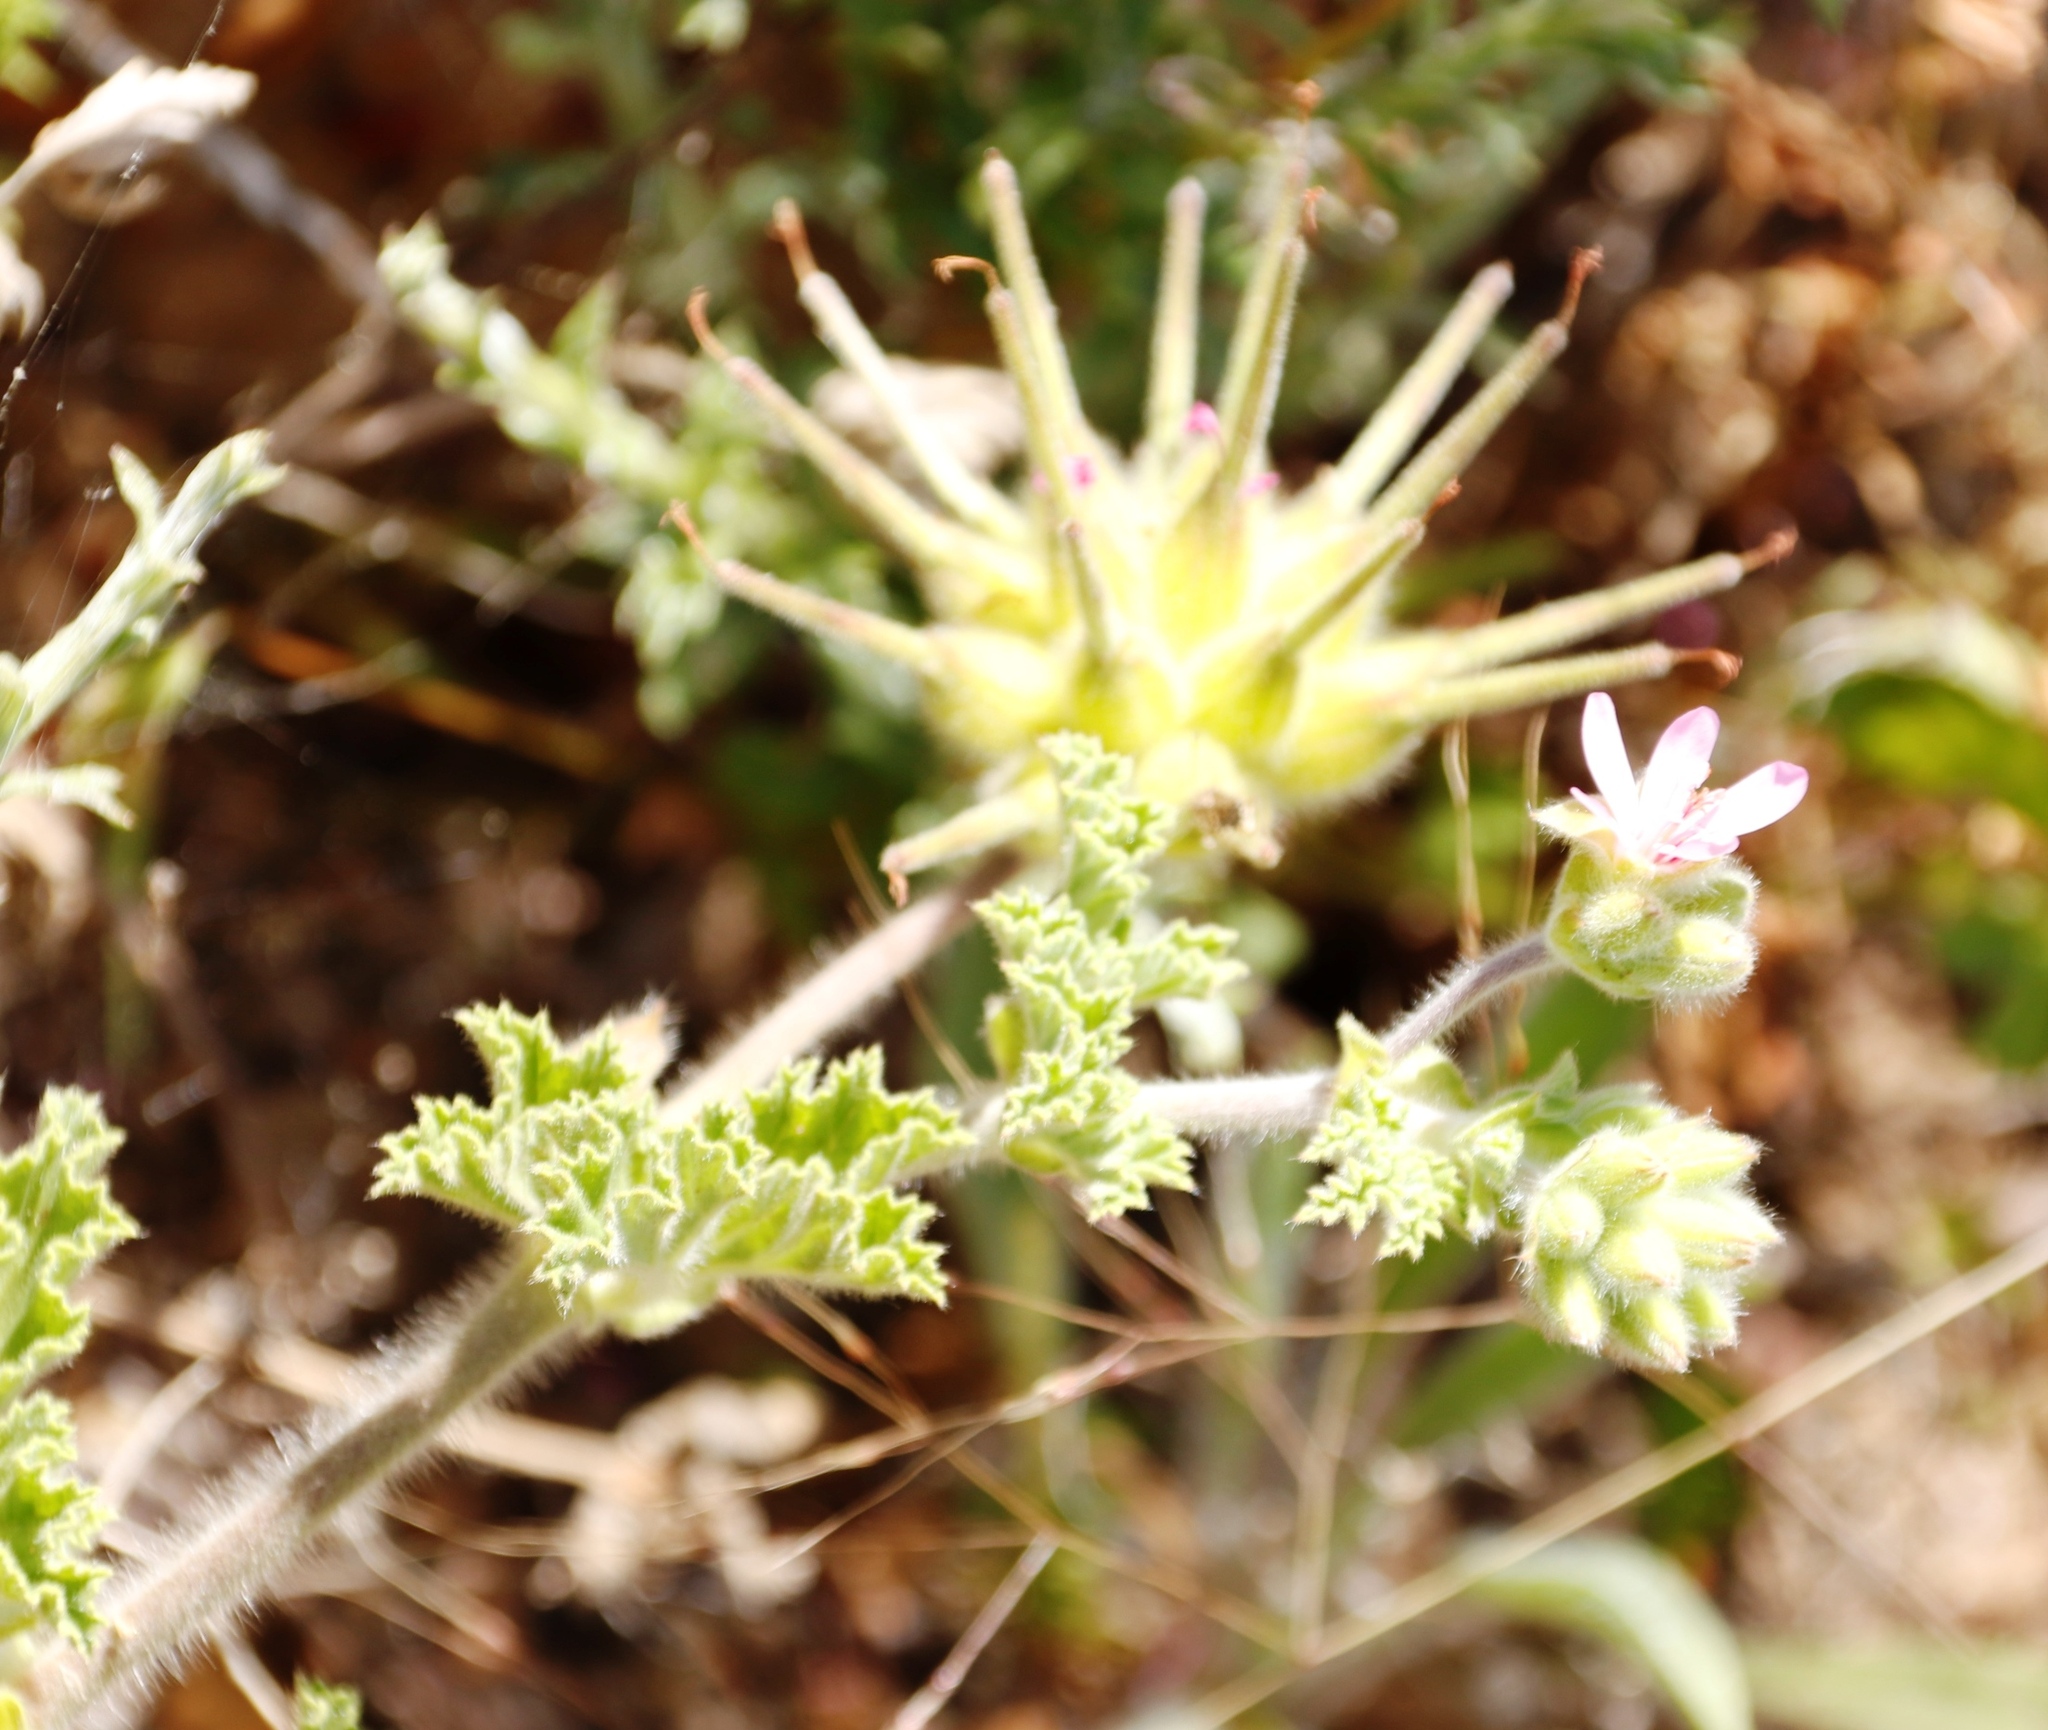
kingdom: Plantae
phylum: Tracheophyta
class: Magnoliopsida
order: Geraniales
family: Geraniaceae
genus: Pelargonium
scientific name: Pelargonium capitatum
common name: Rose scented geranium
